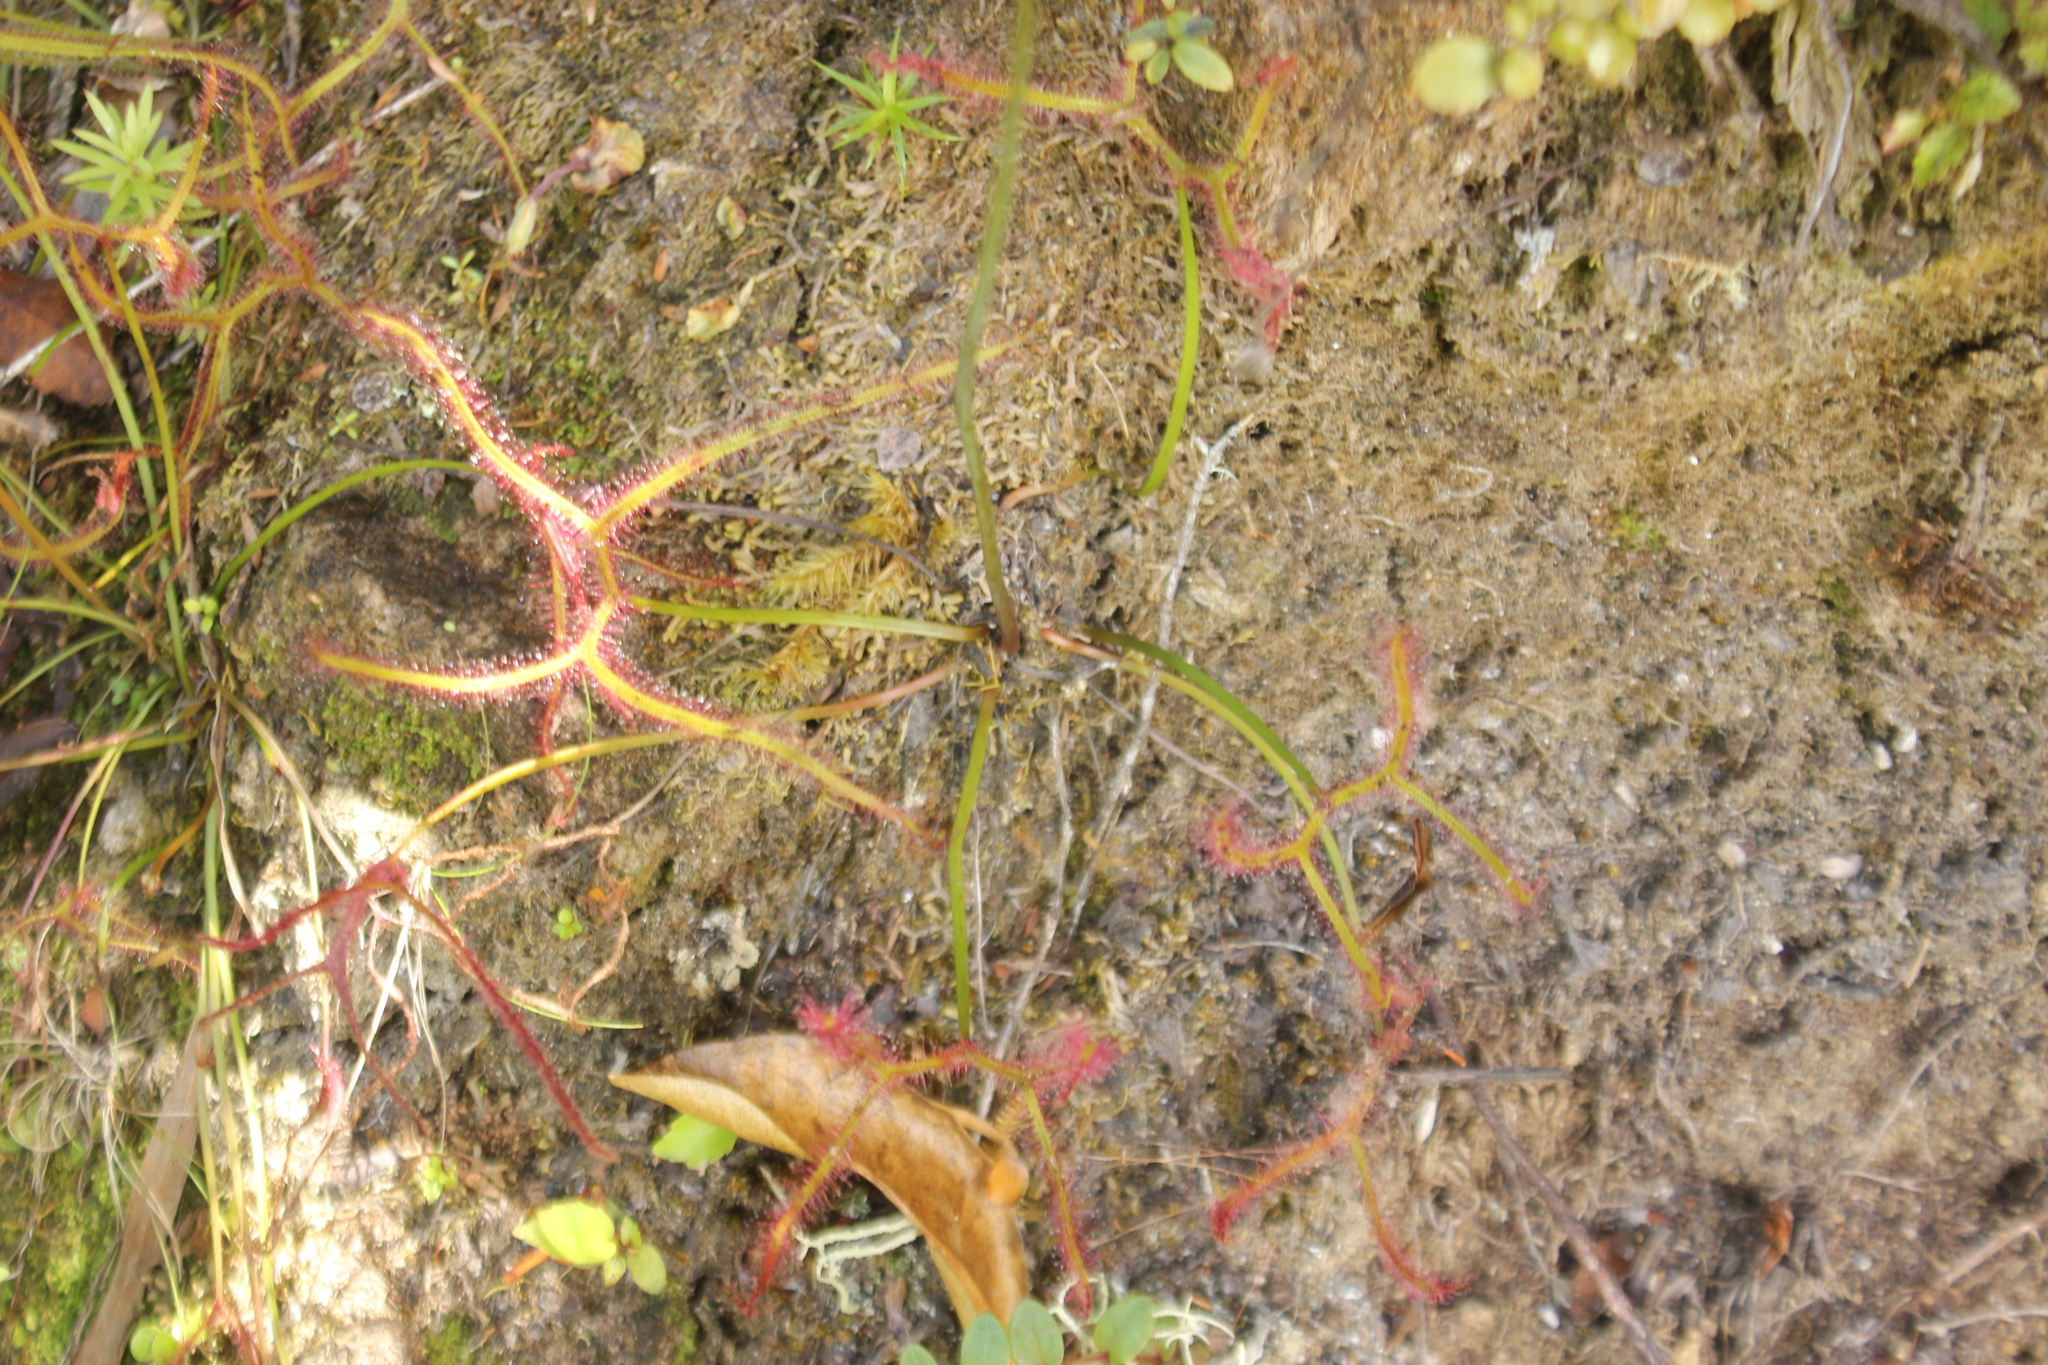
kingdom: Plantae
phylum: Tracheophyta
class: Magnoliopsida
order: Caryophyllales
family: Droseraceae
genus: Drosera
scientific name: Drosera binata
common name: Forked sundew
